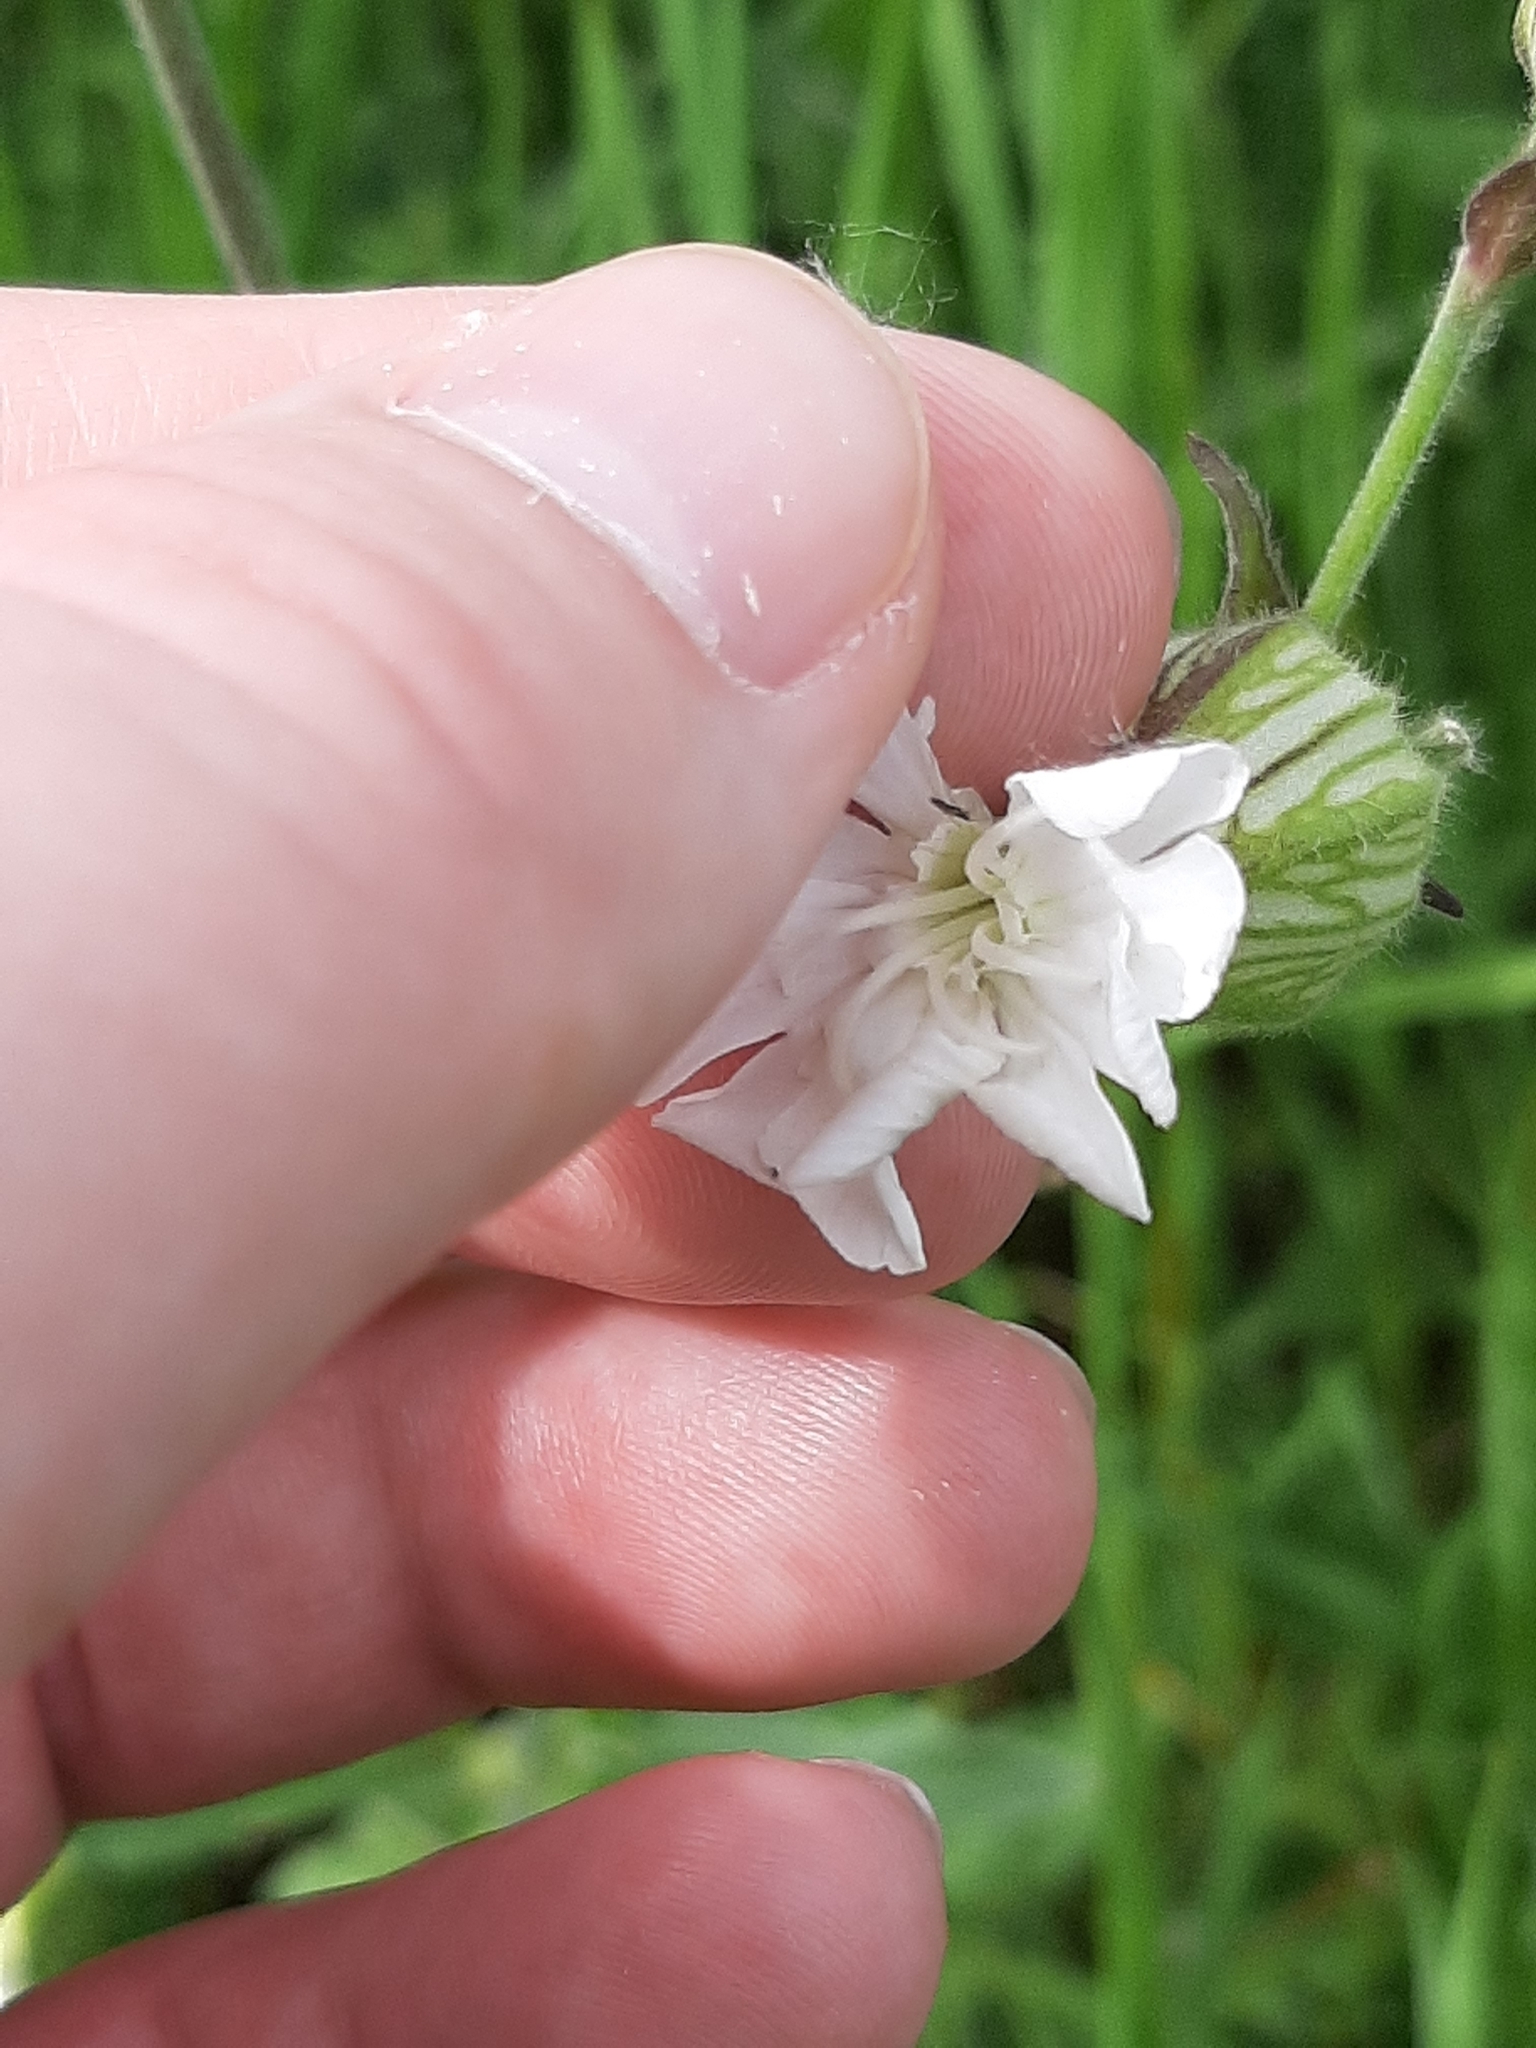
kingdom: Plantae
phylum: Tracheophyta
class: Magnoliopsida
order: Caryophyllales
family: Caryophyllaceae
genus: Silene
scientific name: Silene latifolia
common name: White campion
